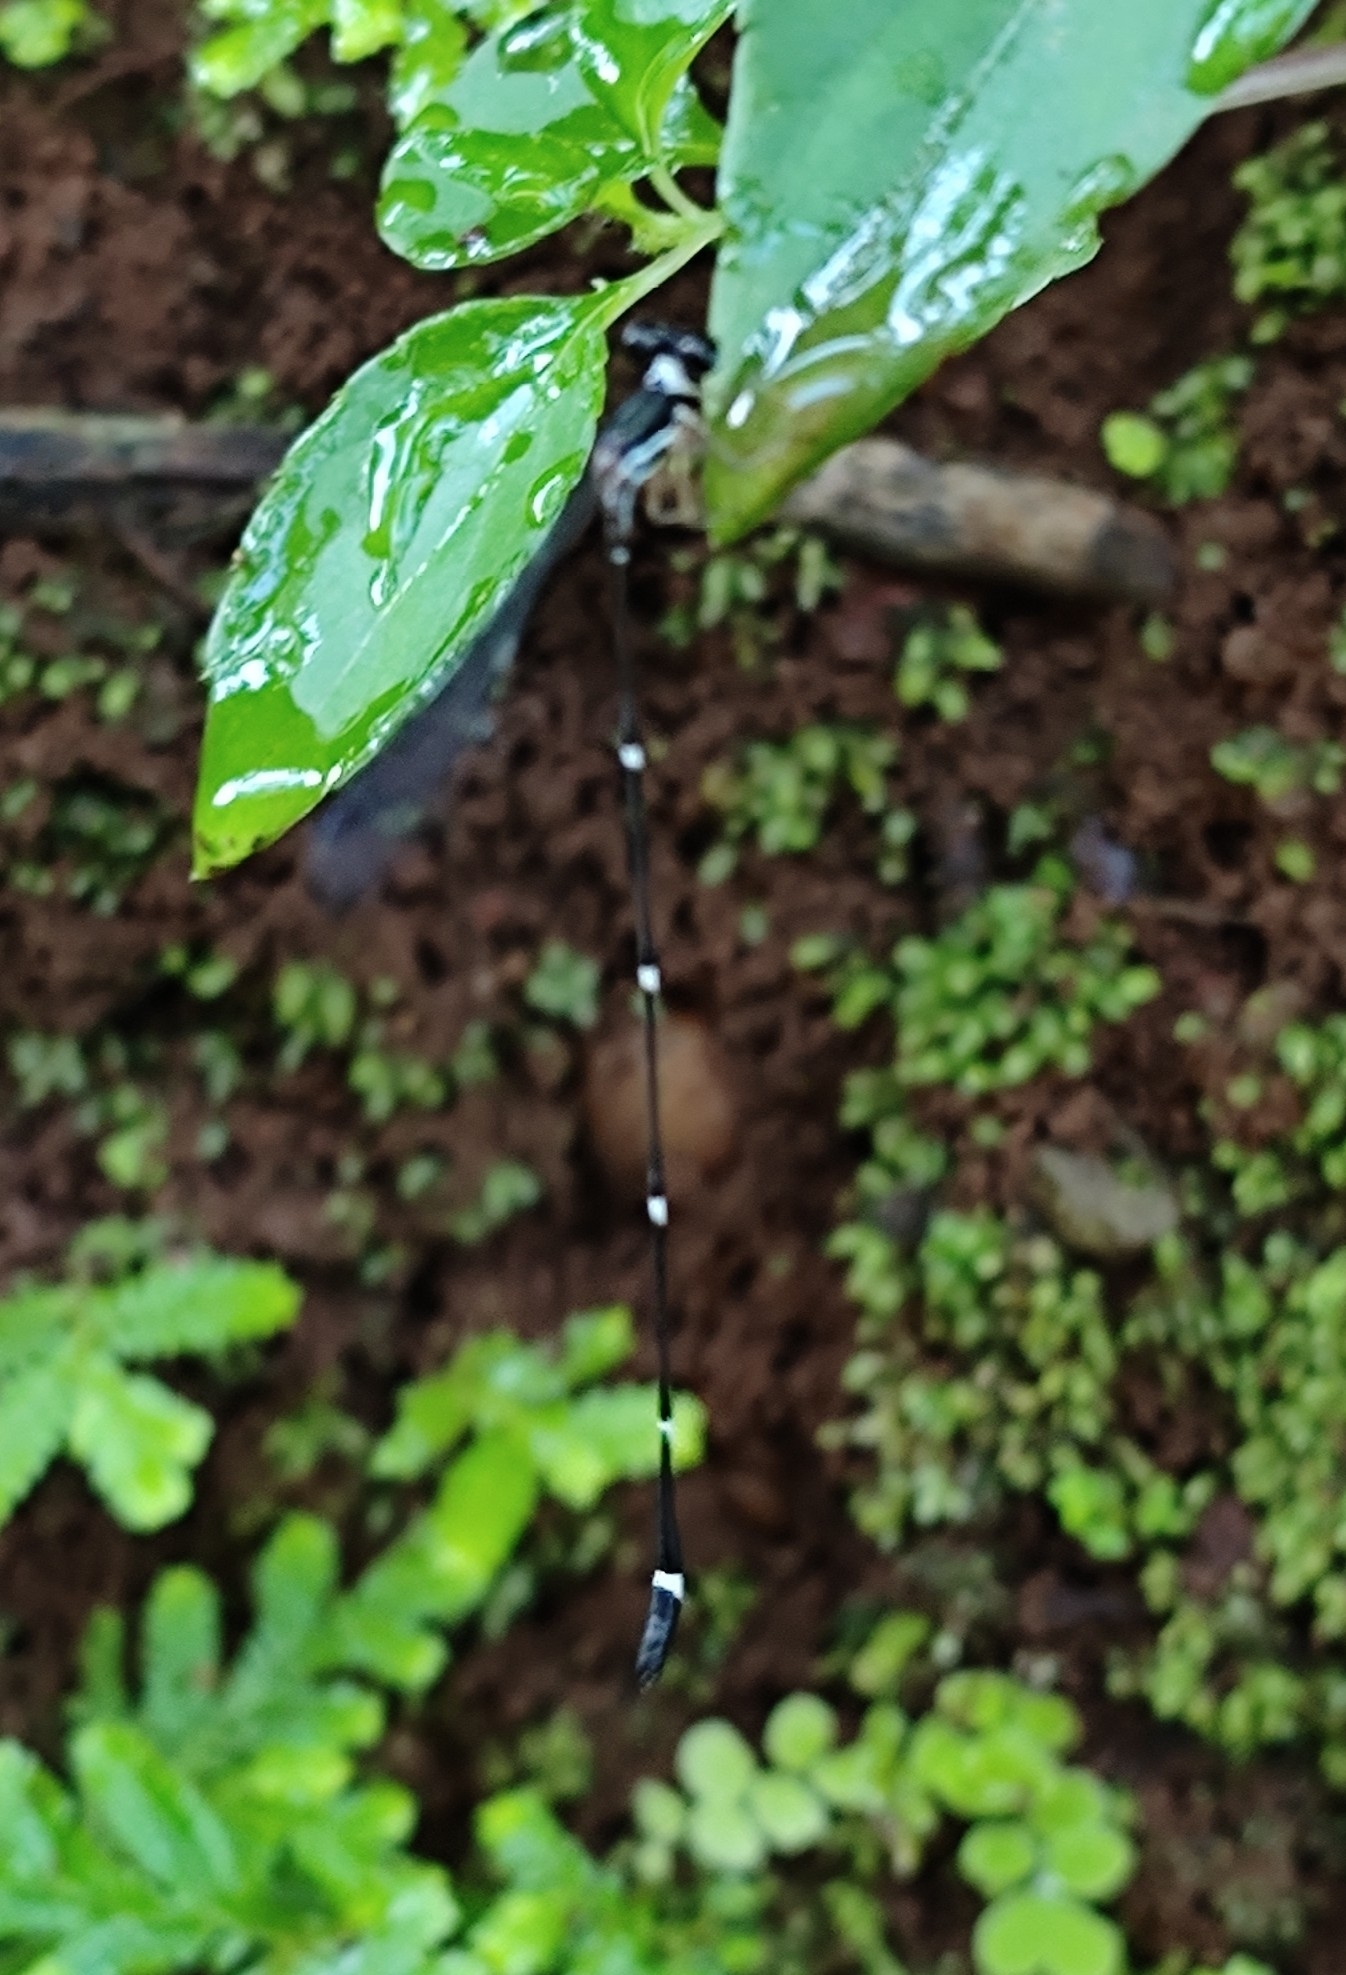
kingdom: Animalia
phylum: Arthropoda
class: Insecta
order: Odonata
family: Platystictidae
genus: Protosticta
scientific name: Protosticta gravelyi
